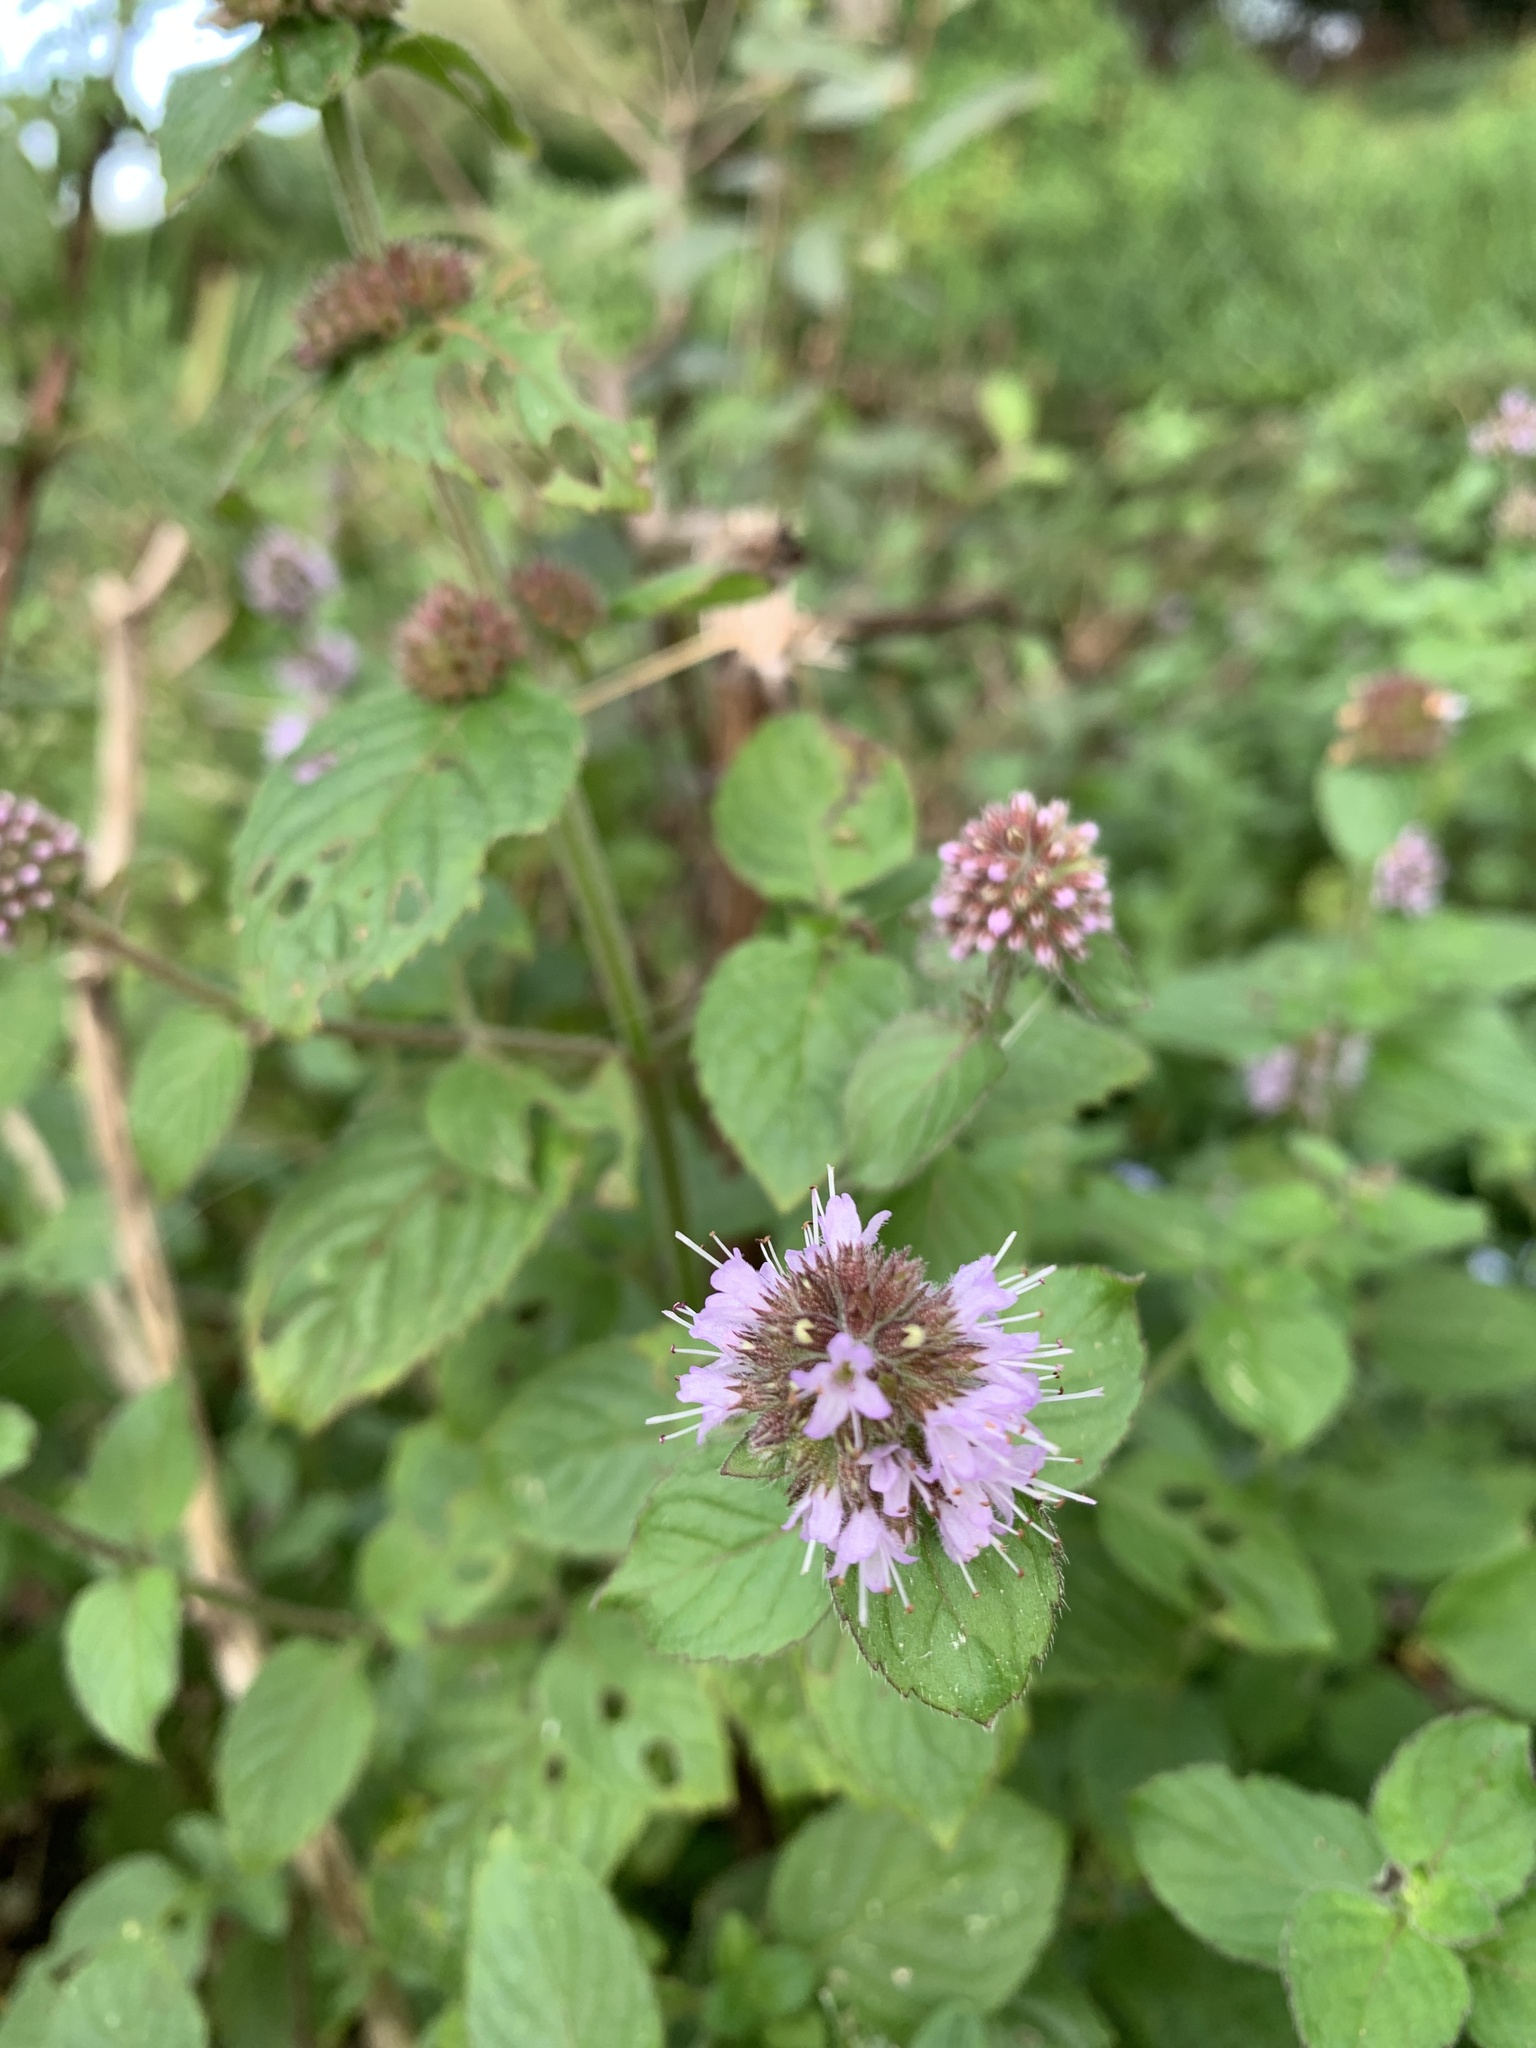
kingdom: Plantae
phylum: Tracheophyta
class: Magnoliopsida
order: Lamiales
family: Lamiaceae
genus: Mentha
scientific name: Mentha aquatica
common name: Water mint
